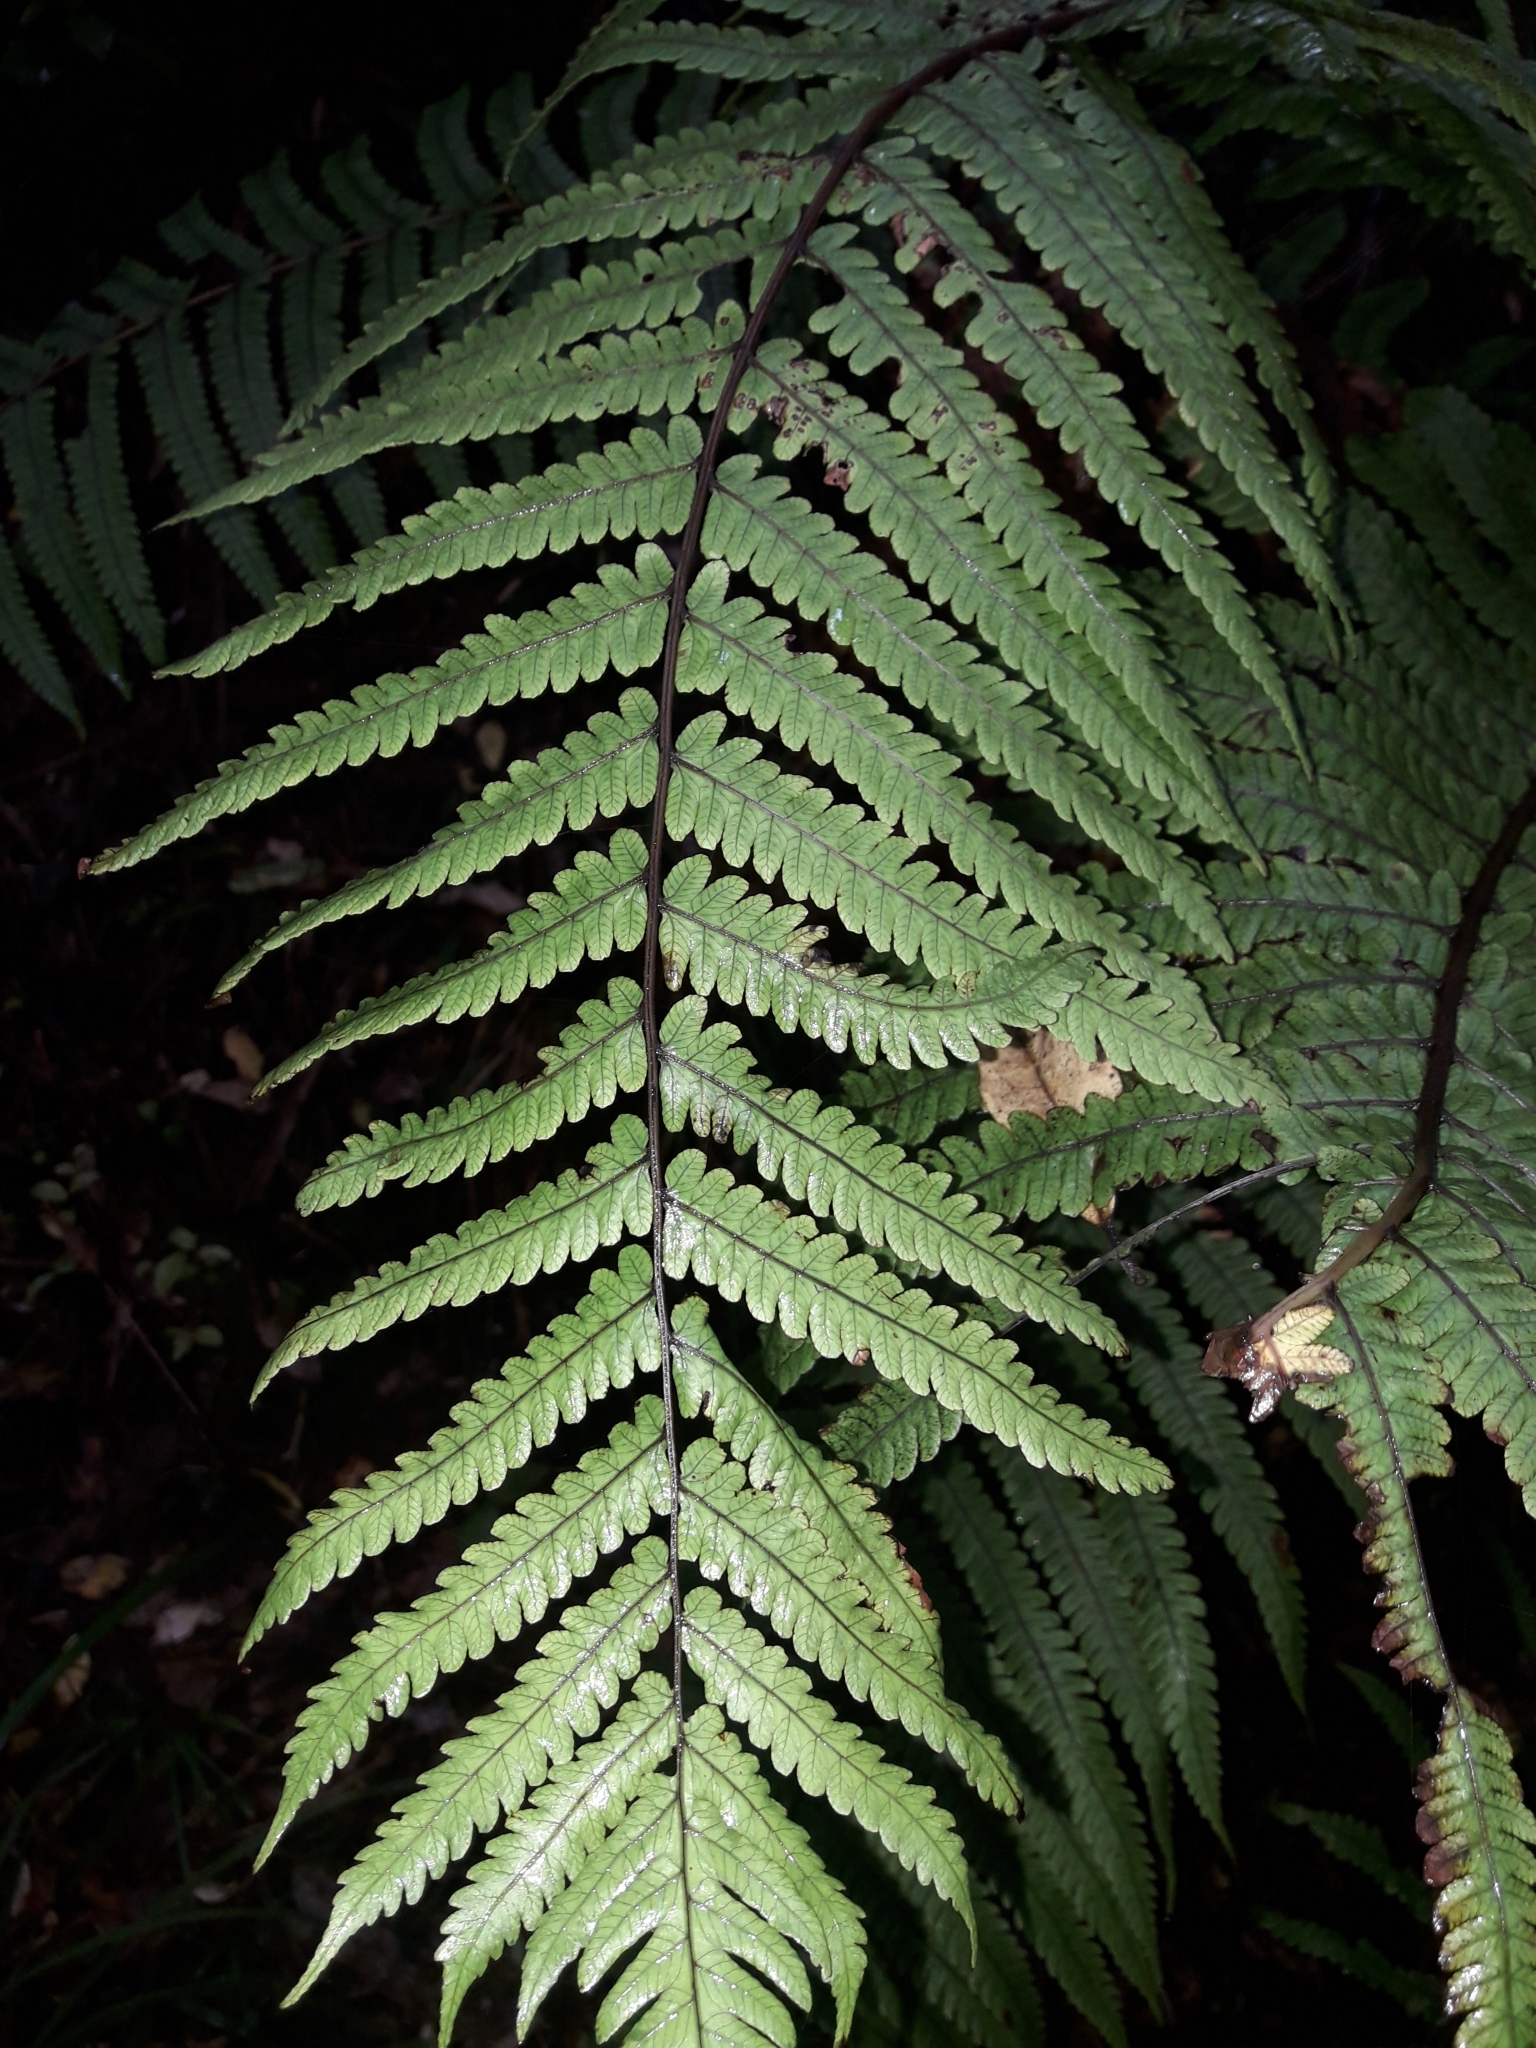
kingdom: Plantae
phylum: Tracheophyta
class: Polypodiopsida
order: Polypodiales
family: Thelypteridaceae
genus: Pakau
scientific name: Pakau pennigera
